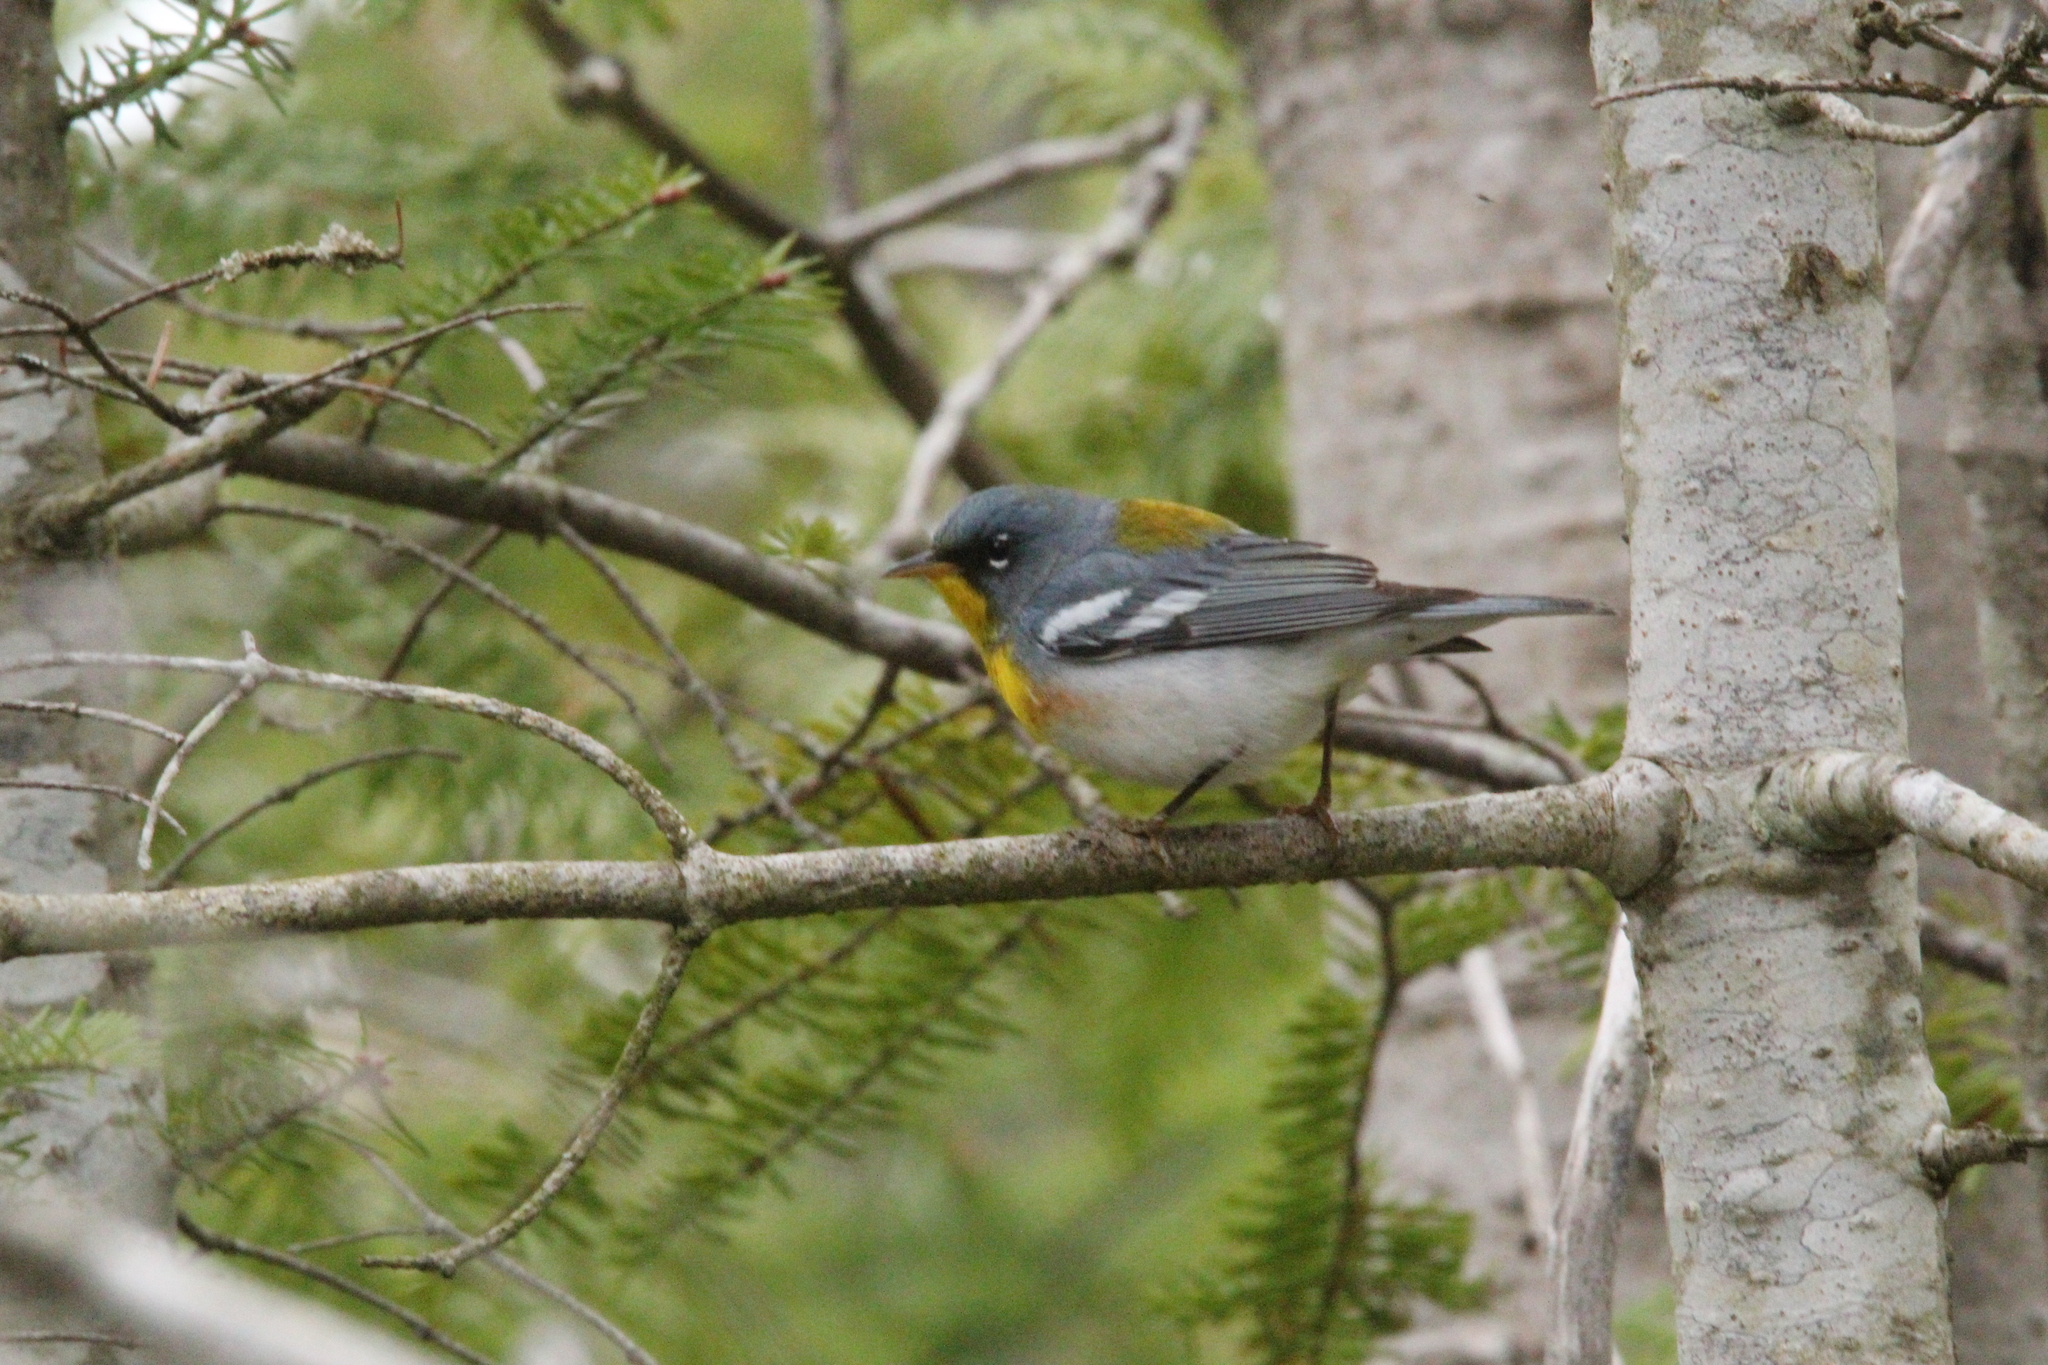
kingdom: Animalia
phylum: Chordata
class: Aves
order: Passeriformes
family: Parulidae
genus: Setophaga
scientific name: Setophaga americana
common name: Northern parula
